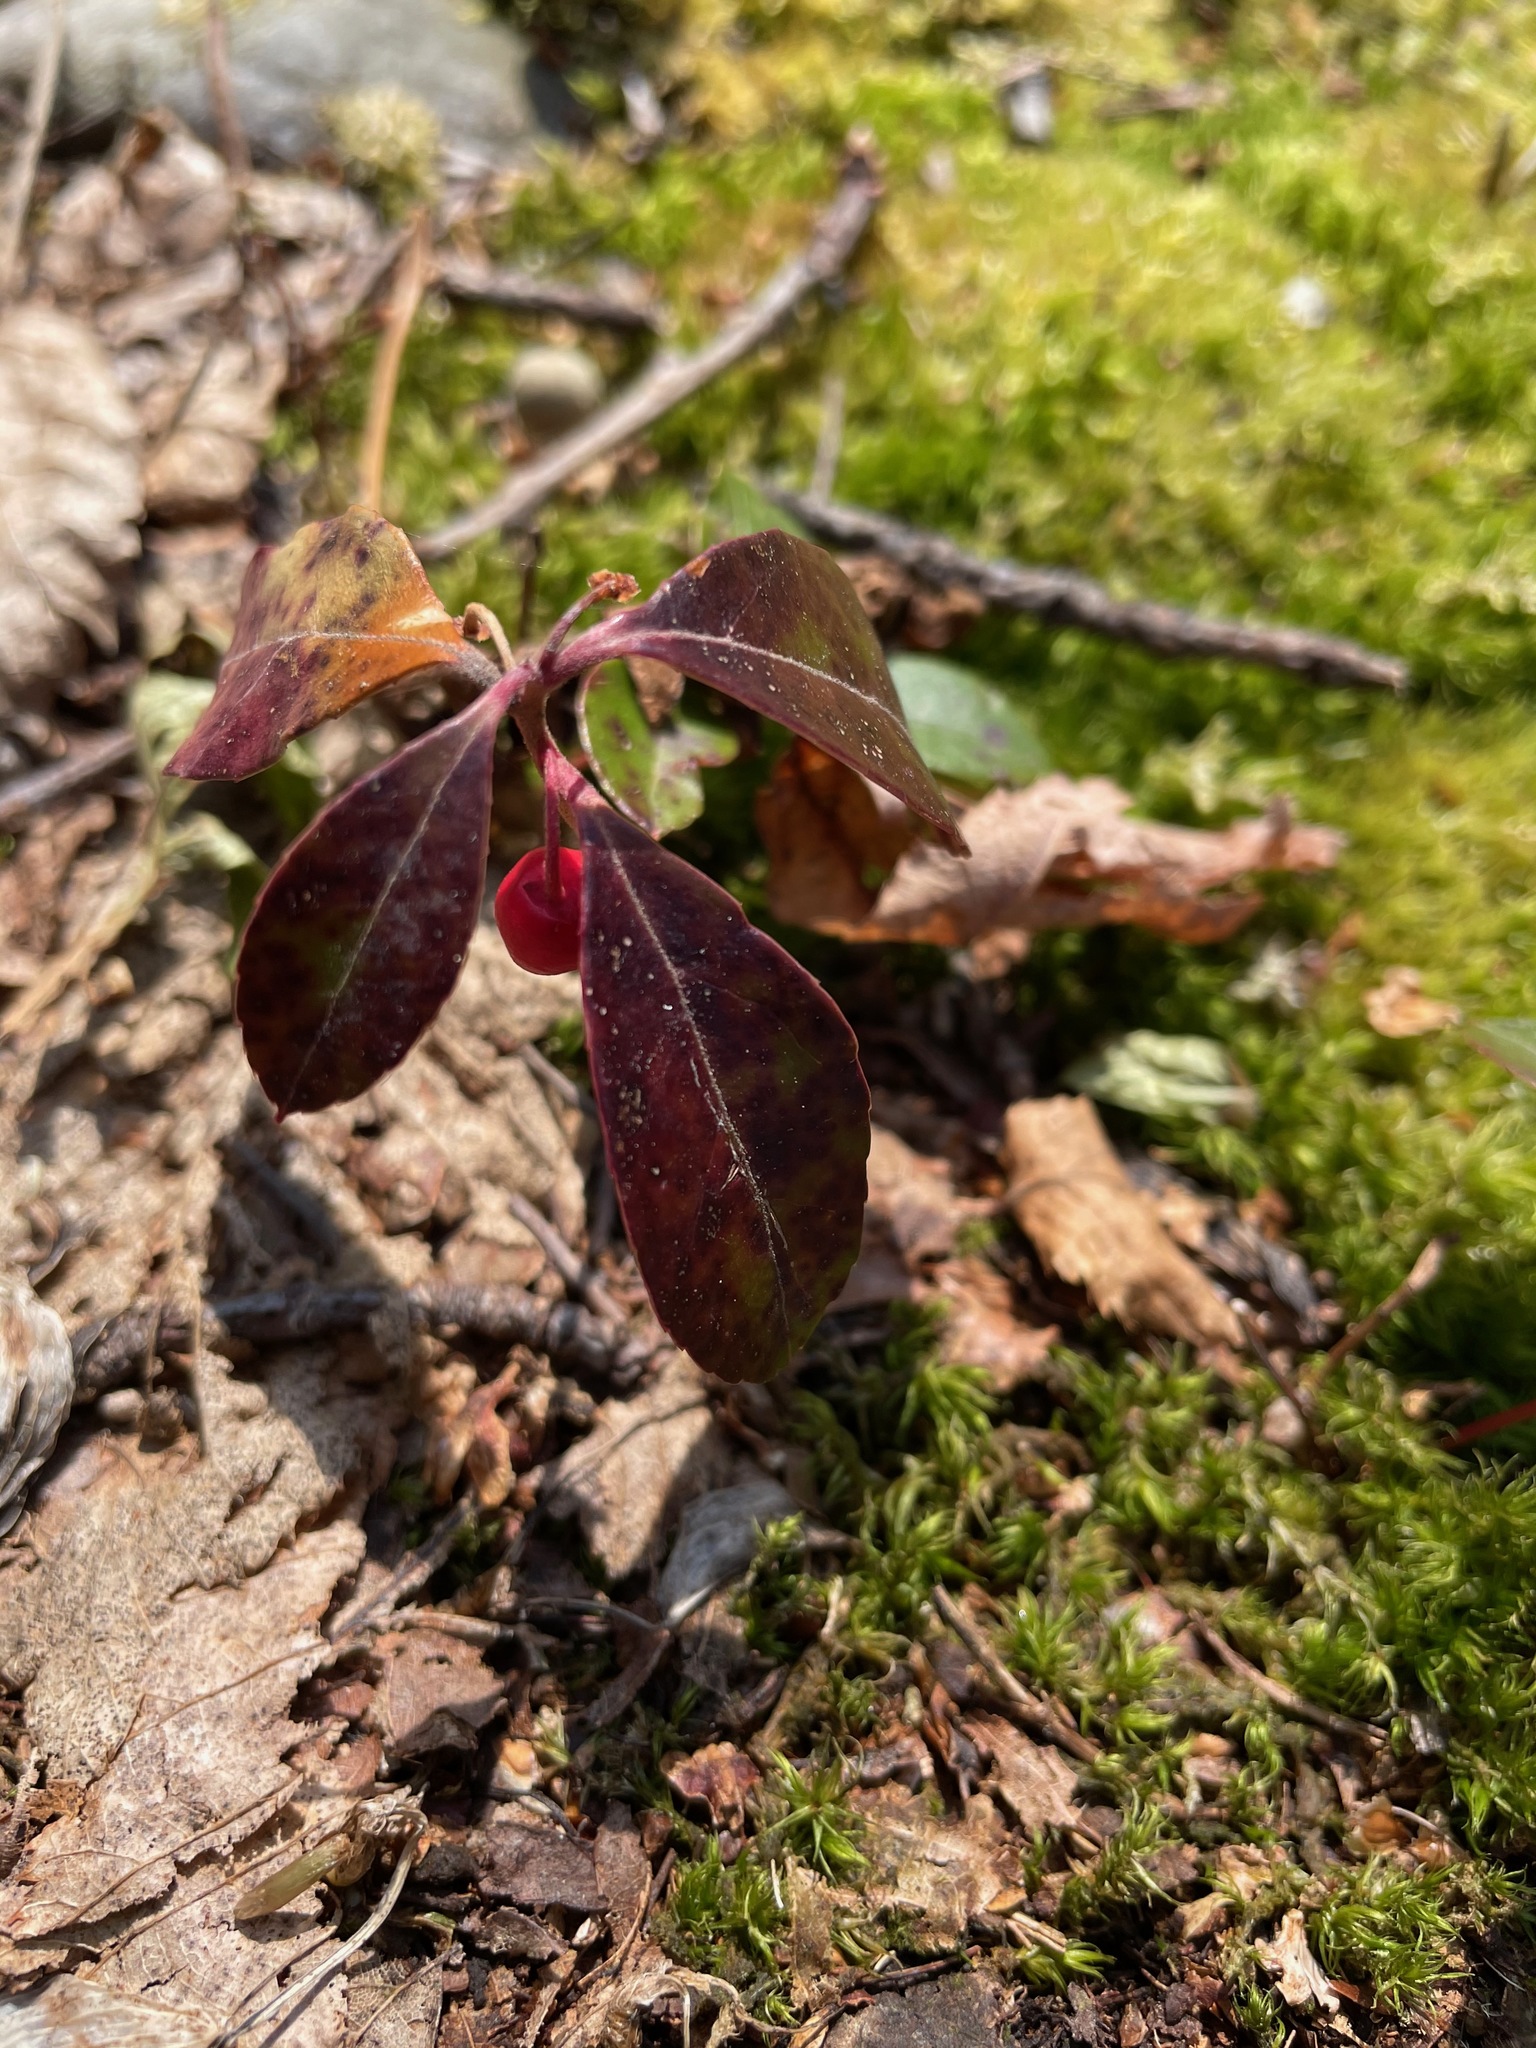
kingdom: Plantae
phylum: Tracheophyta
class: Magnoliopsida
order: Ericales
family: Ericaceae
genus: Gaultheria
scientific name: Gaultheria procumbens
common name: Checkerberry
